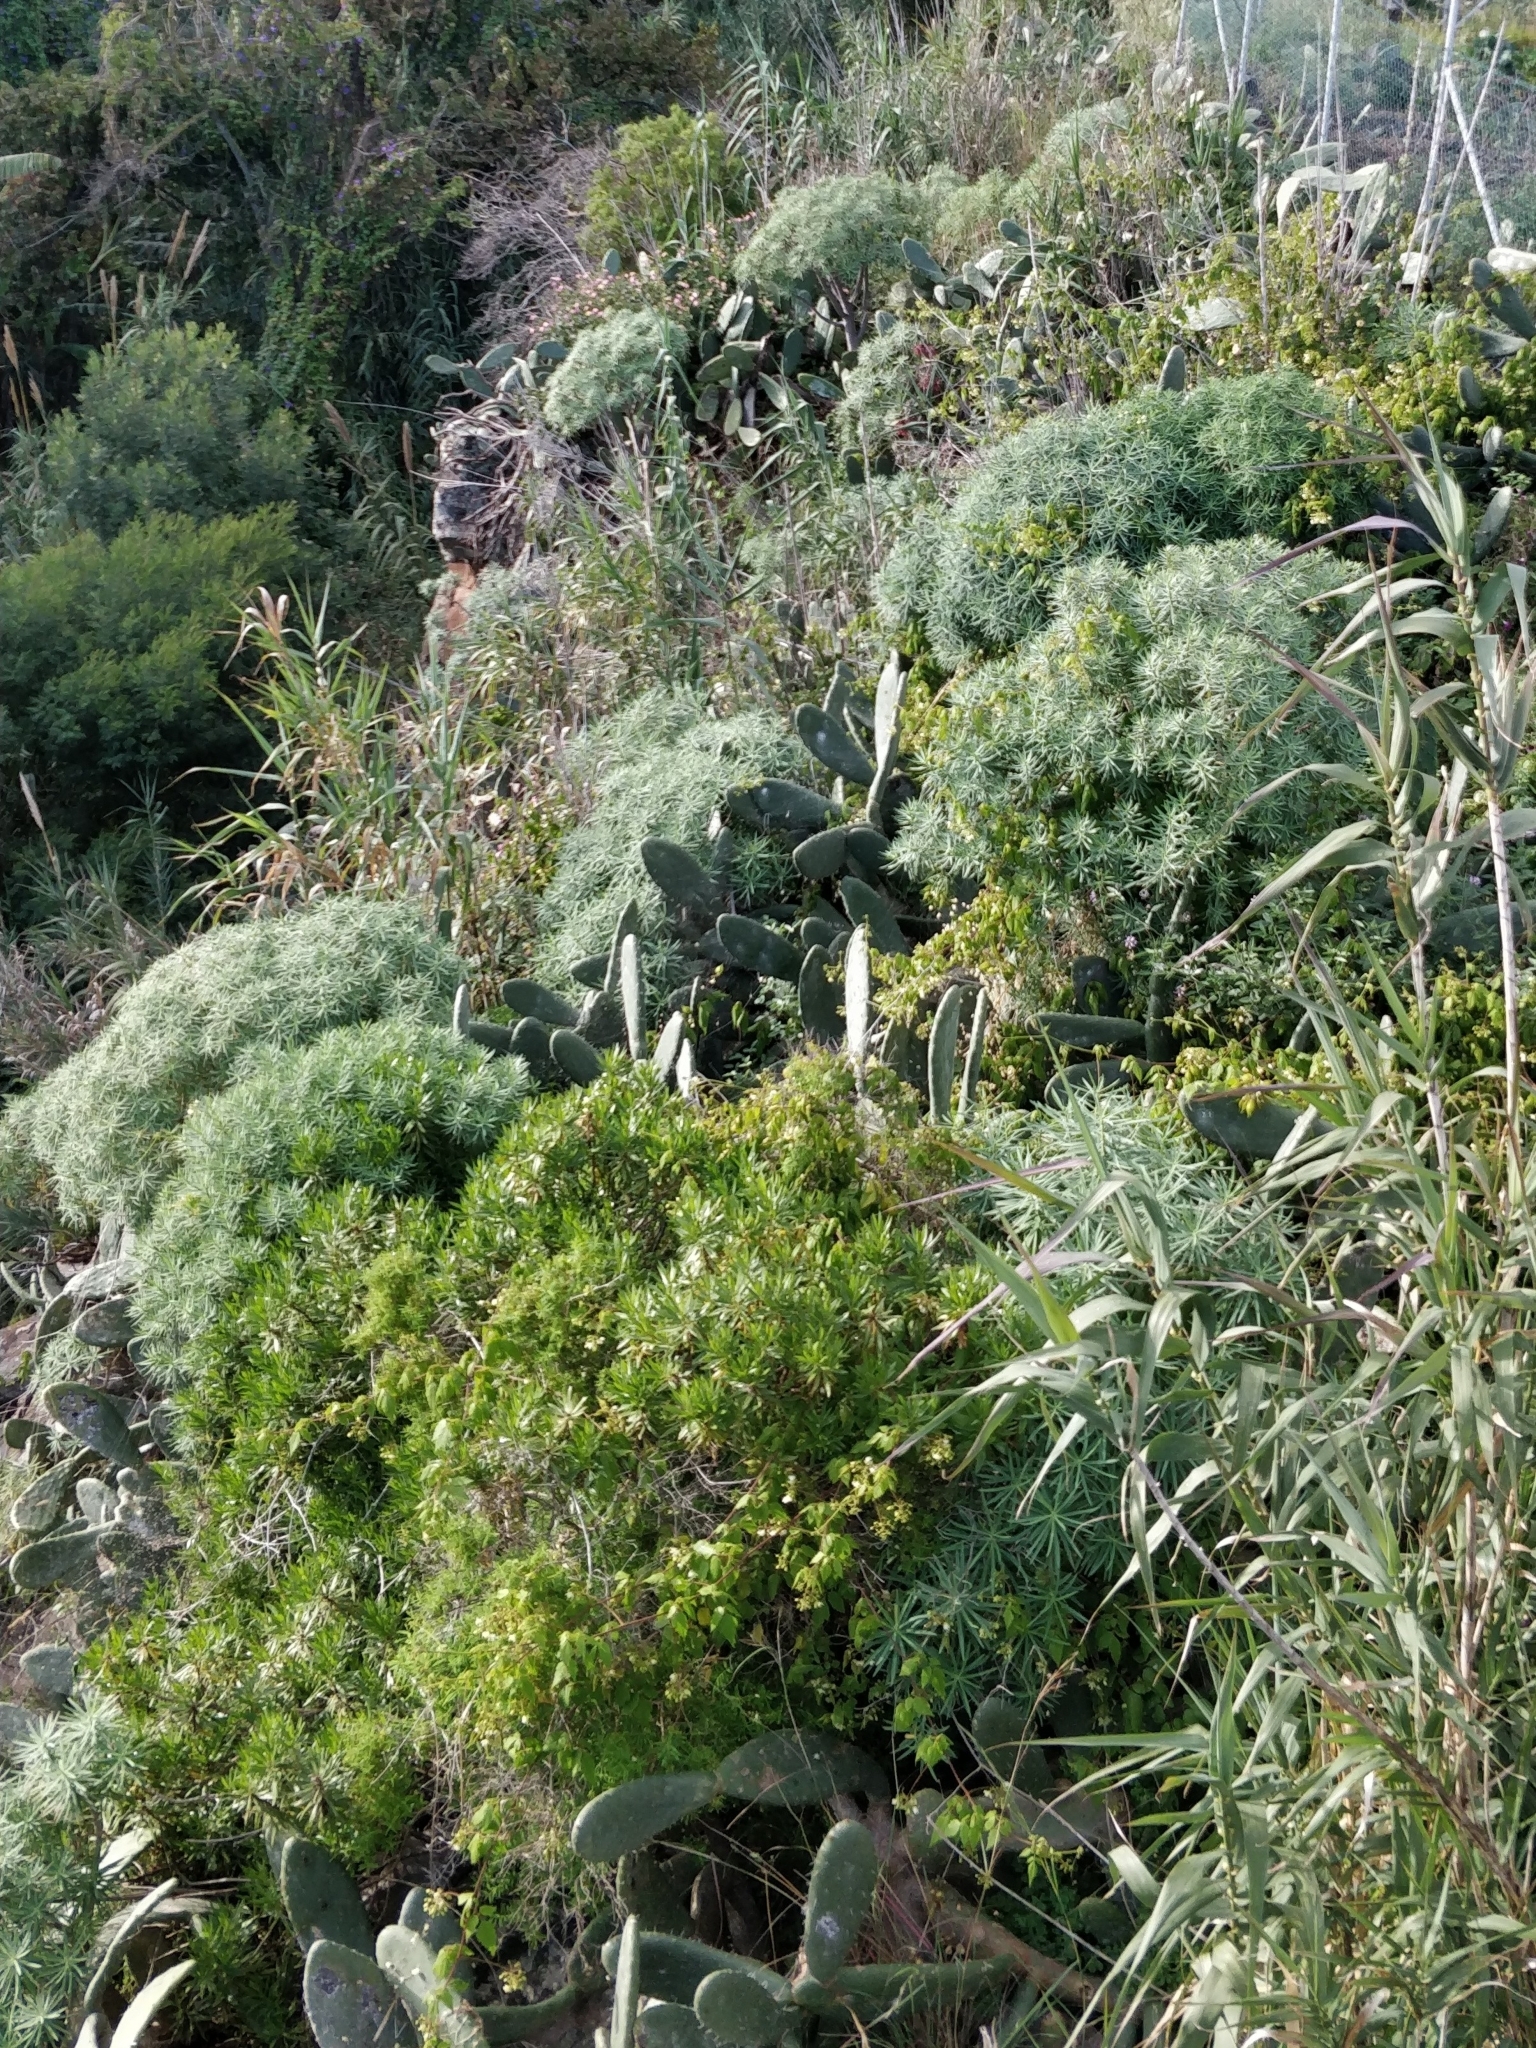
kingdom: Plantae
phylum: Tracheophyta
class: Magnoliopsida
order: Malpighiales
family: Euphorbiaceae
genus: Euphorbia
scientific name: Euphorbia piscatoria
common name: Fish-stunning spurge
